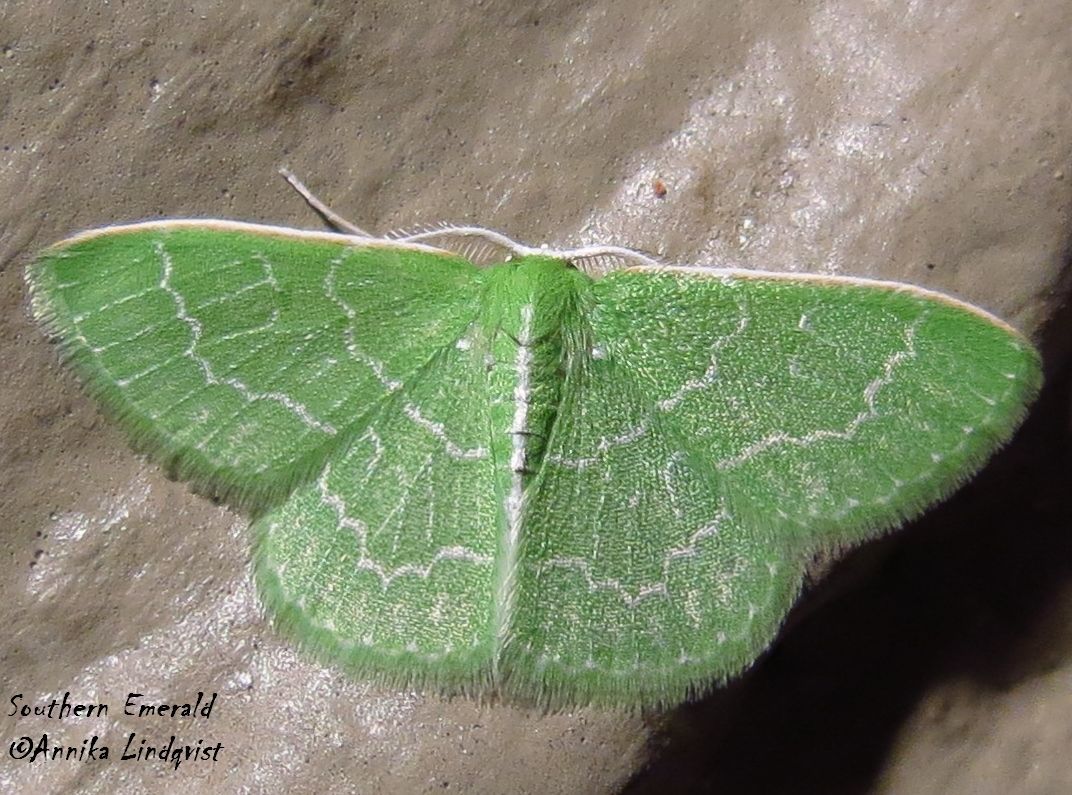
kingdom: Animalia
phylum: Arthropoda
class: Insecta
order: Lepidoptera
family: Geometridae
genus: Synchlora
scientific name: Synchlora frondaria
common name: Southern emerald
